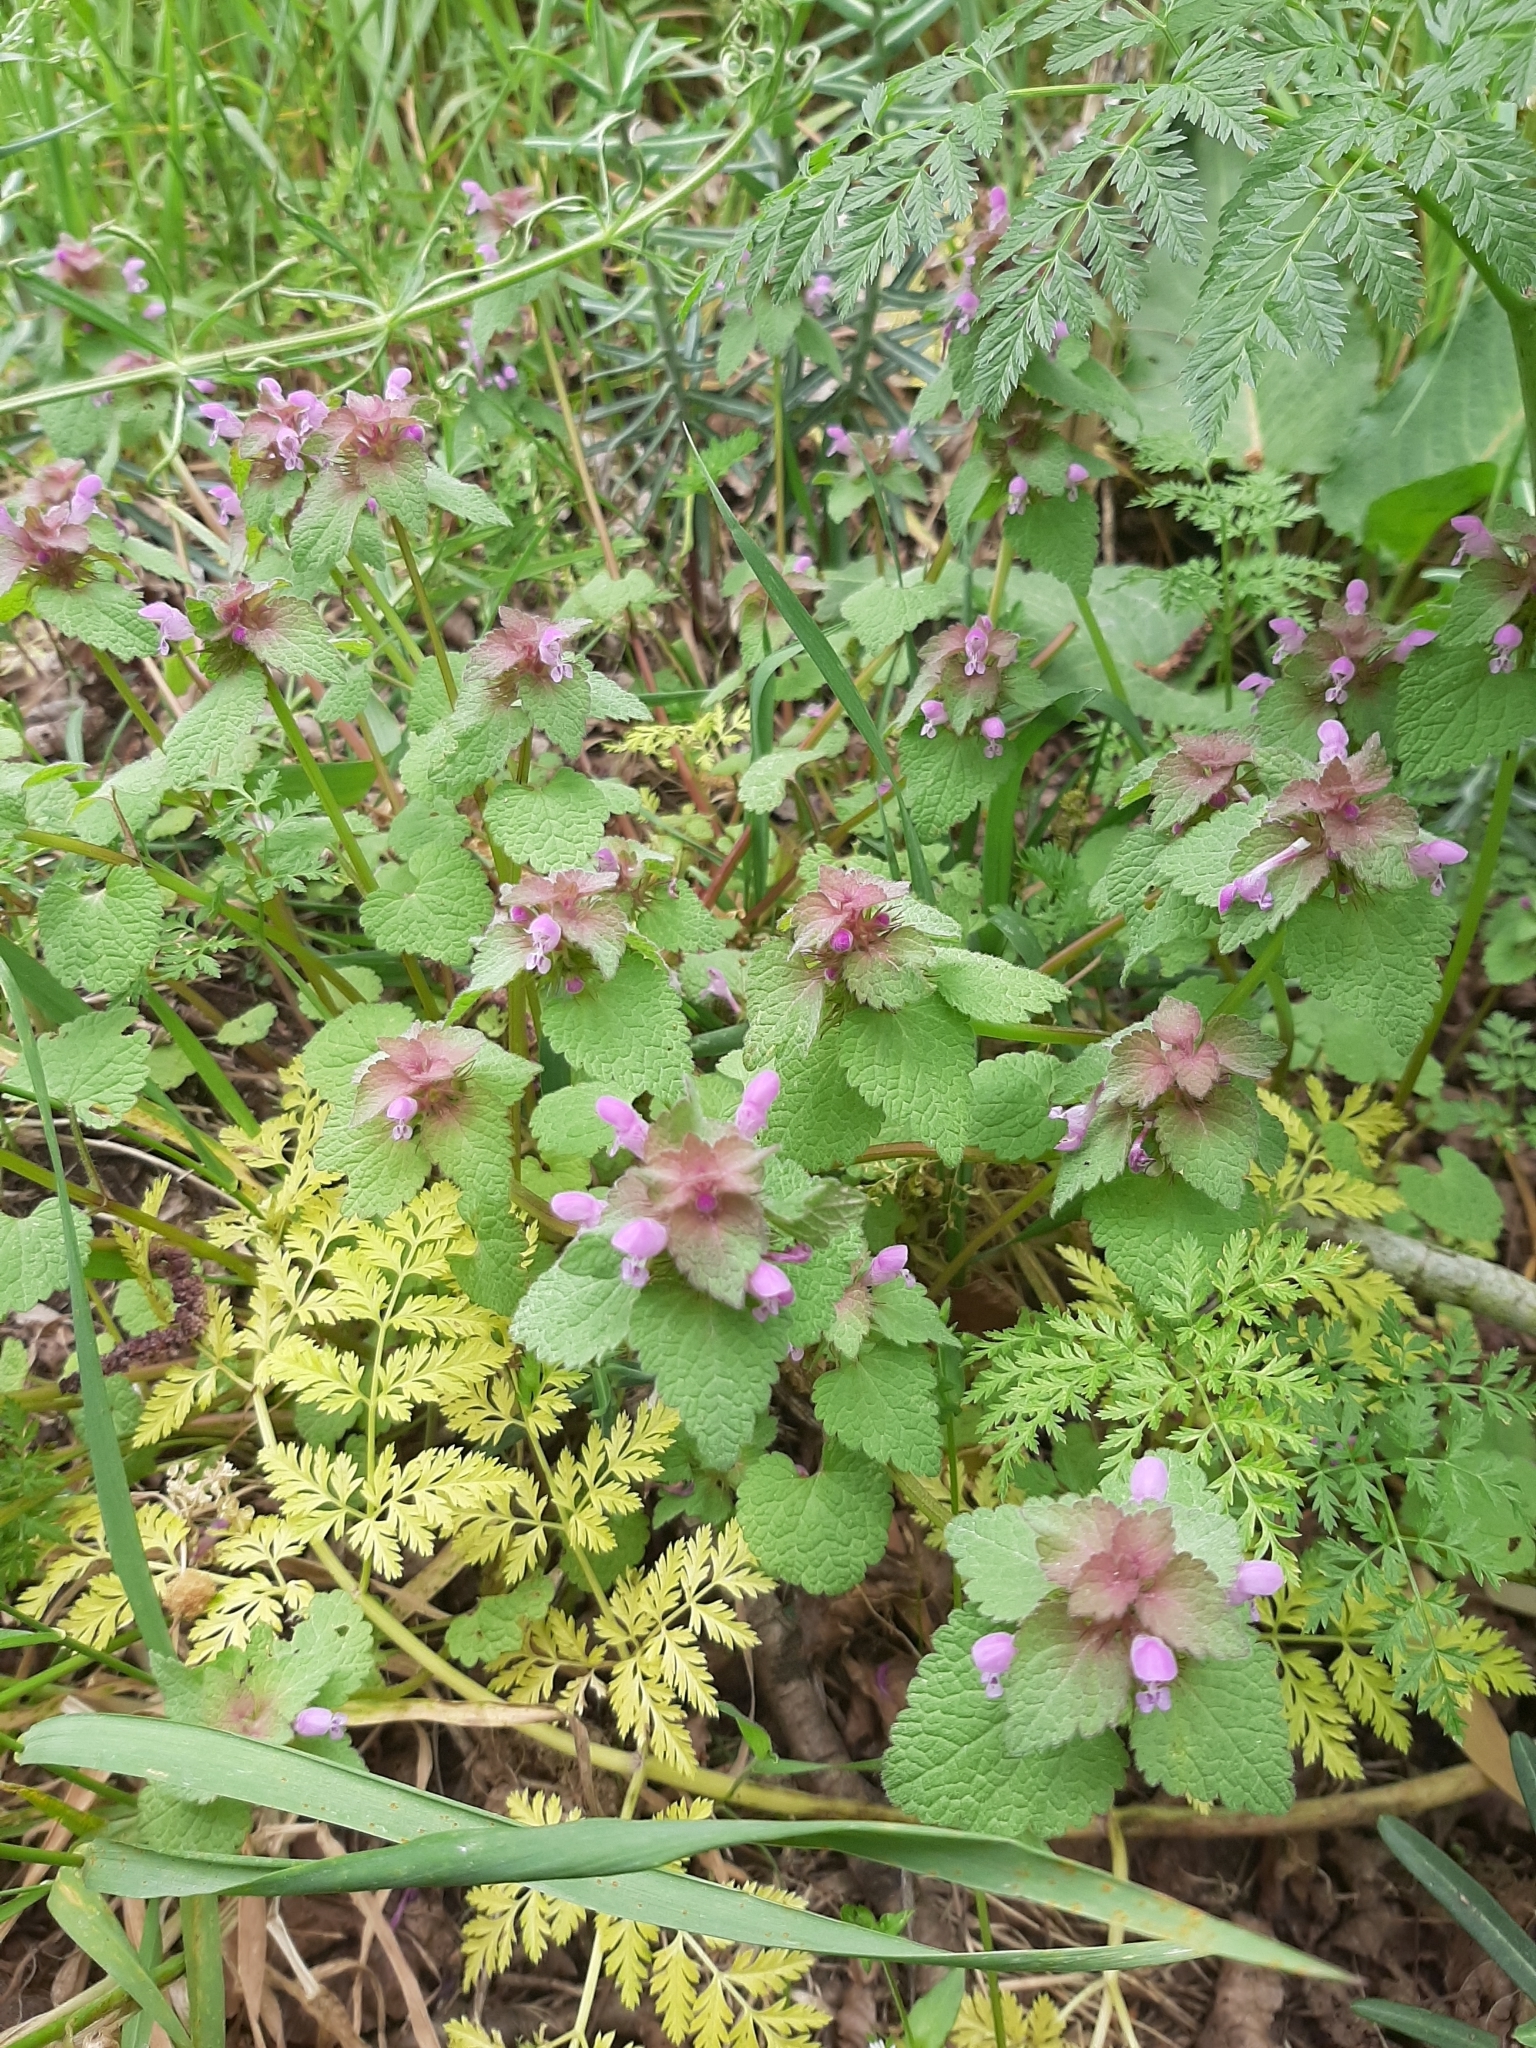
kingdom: Plantae
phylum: Tracheophyta
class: Magnoliopsida
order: Lamiales
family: Lamiaceae
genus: Lamium
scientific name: Lamium purpureum
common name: Red dead-nettle
